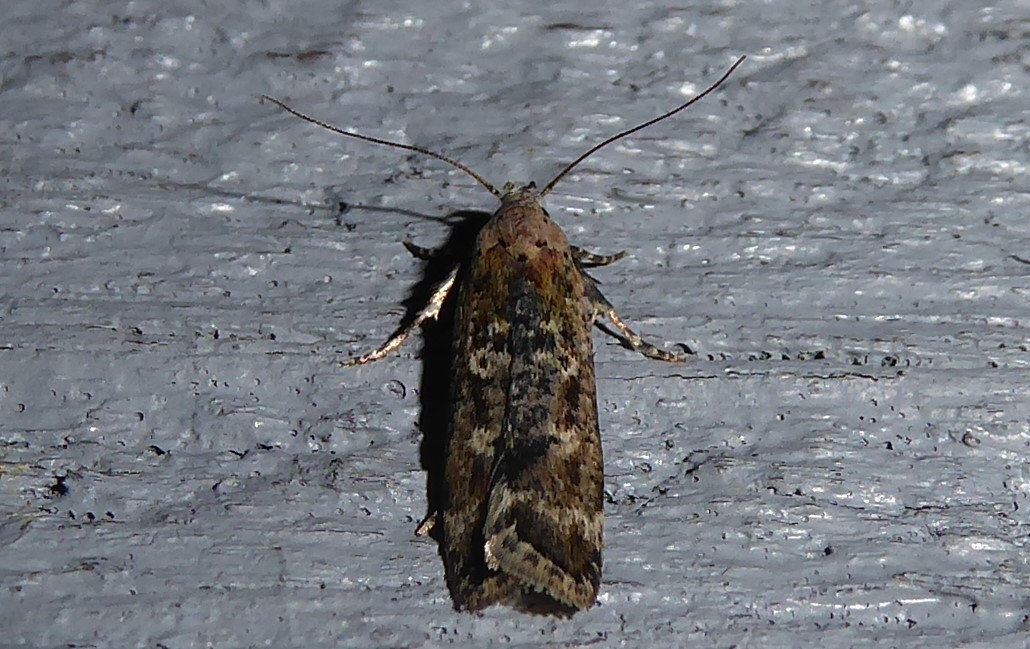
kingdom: Animalia
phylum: Arthropoda
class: Insecta
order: Lepidoptera
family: Gelechiidae
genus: Anisoplaca
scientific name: Anisoplaca achyrota
